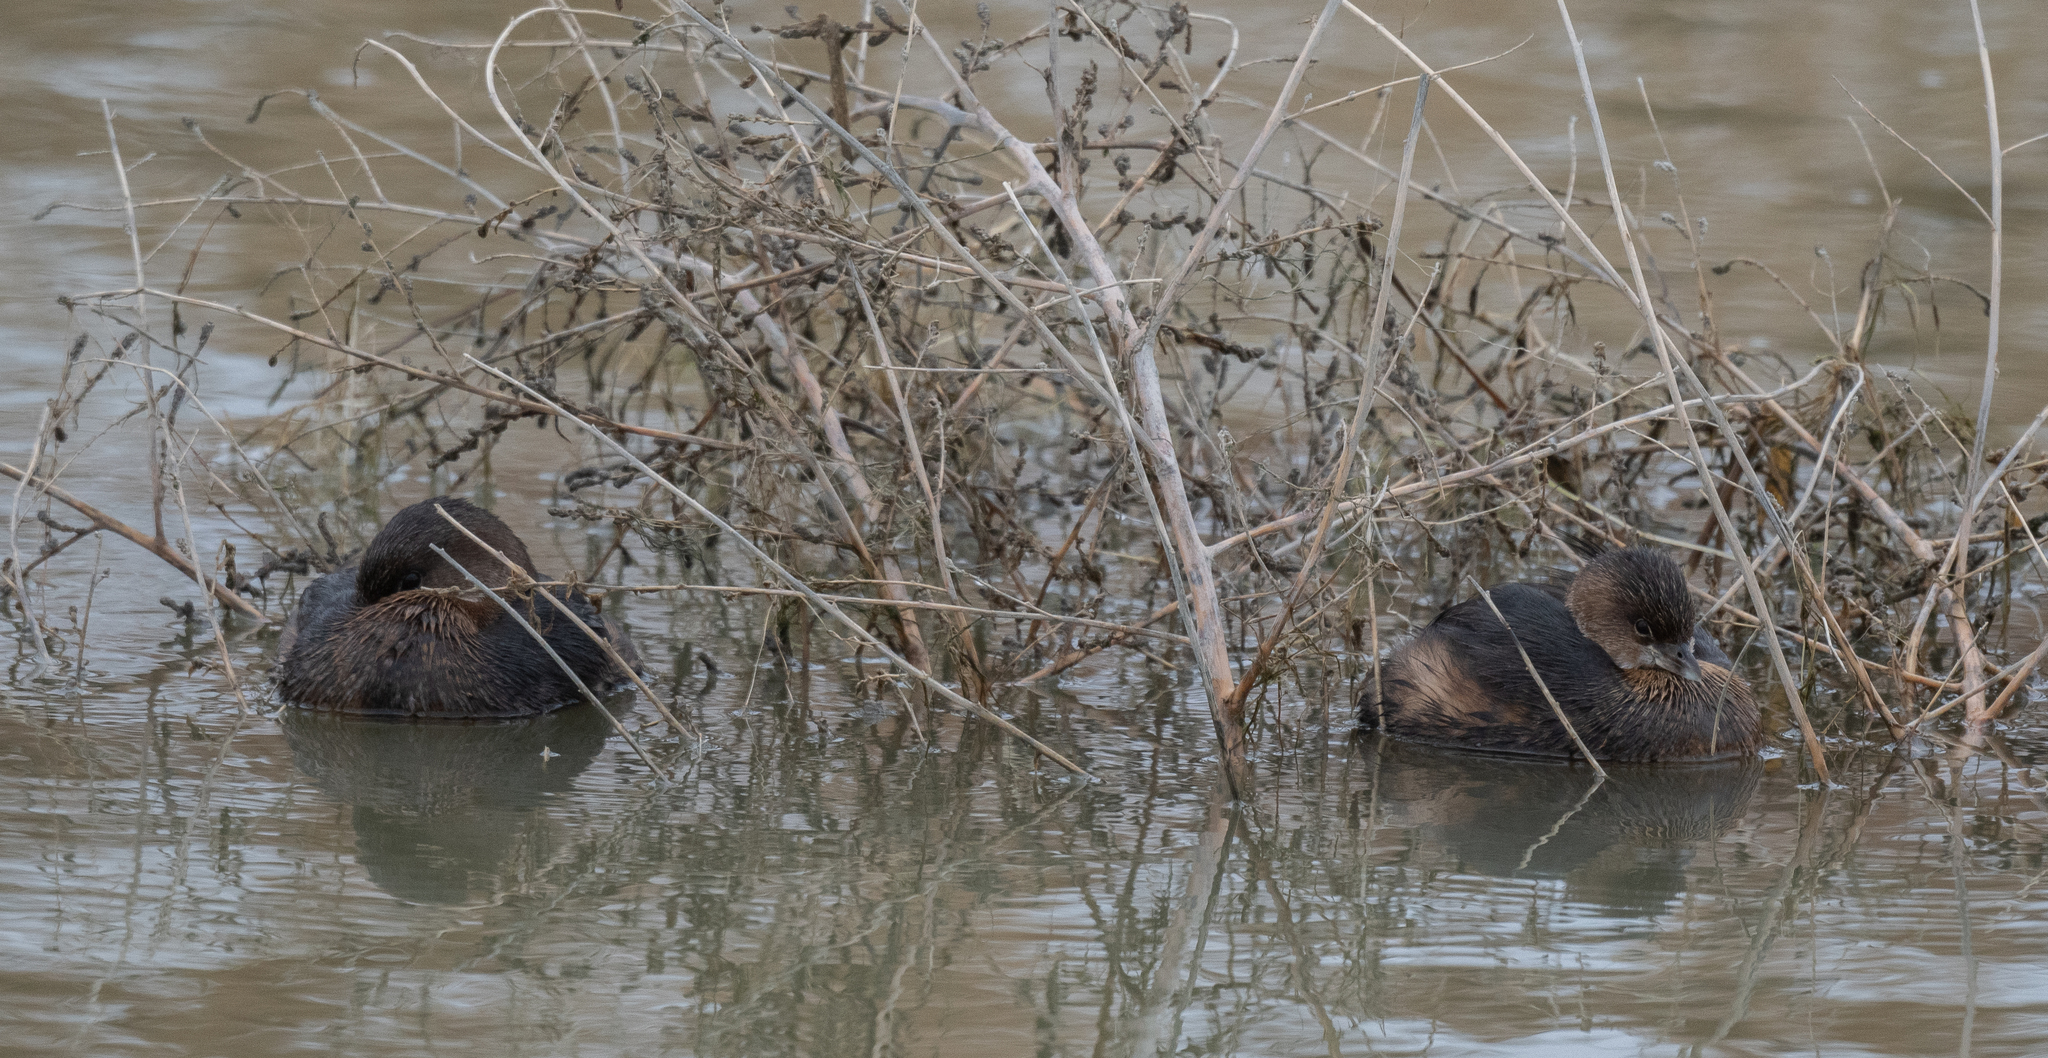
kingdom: Animalia
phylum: Chordata
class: Aves
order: Podicipediformes
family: Podicipedidae
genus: Podilymbus
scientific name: Podilymbus podiceps
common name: Pied-billed grebe
